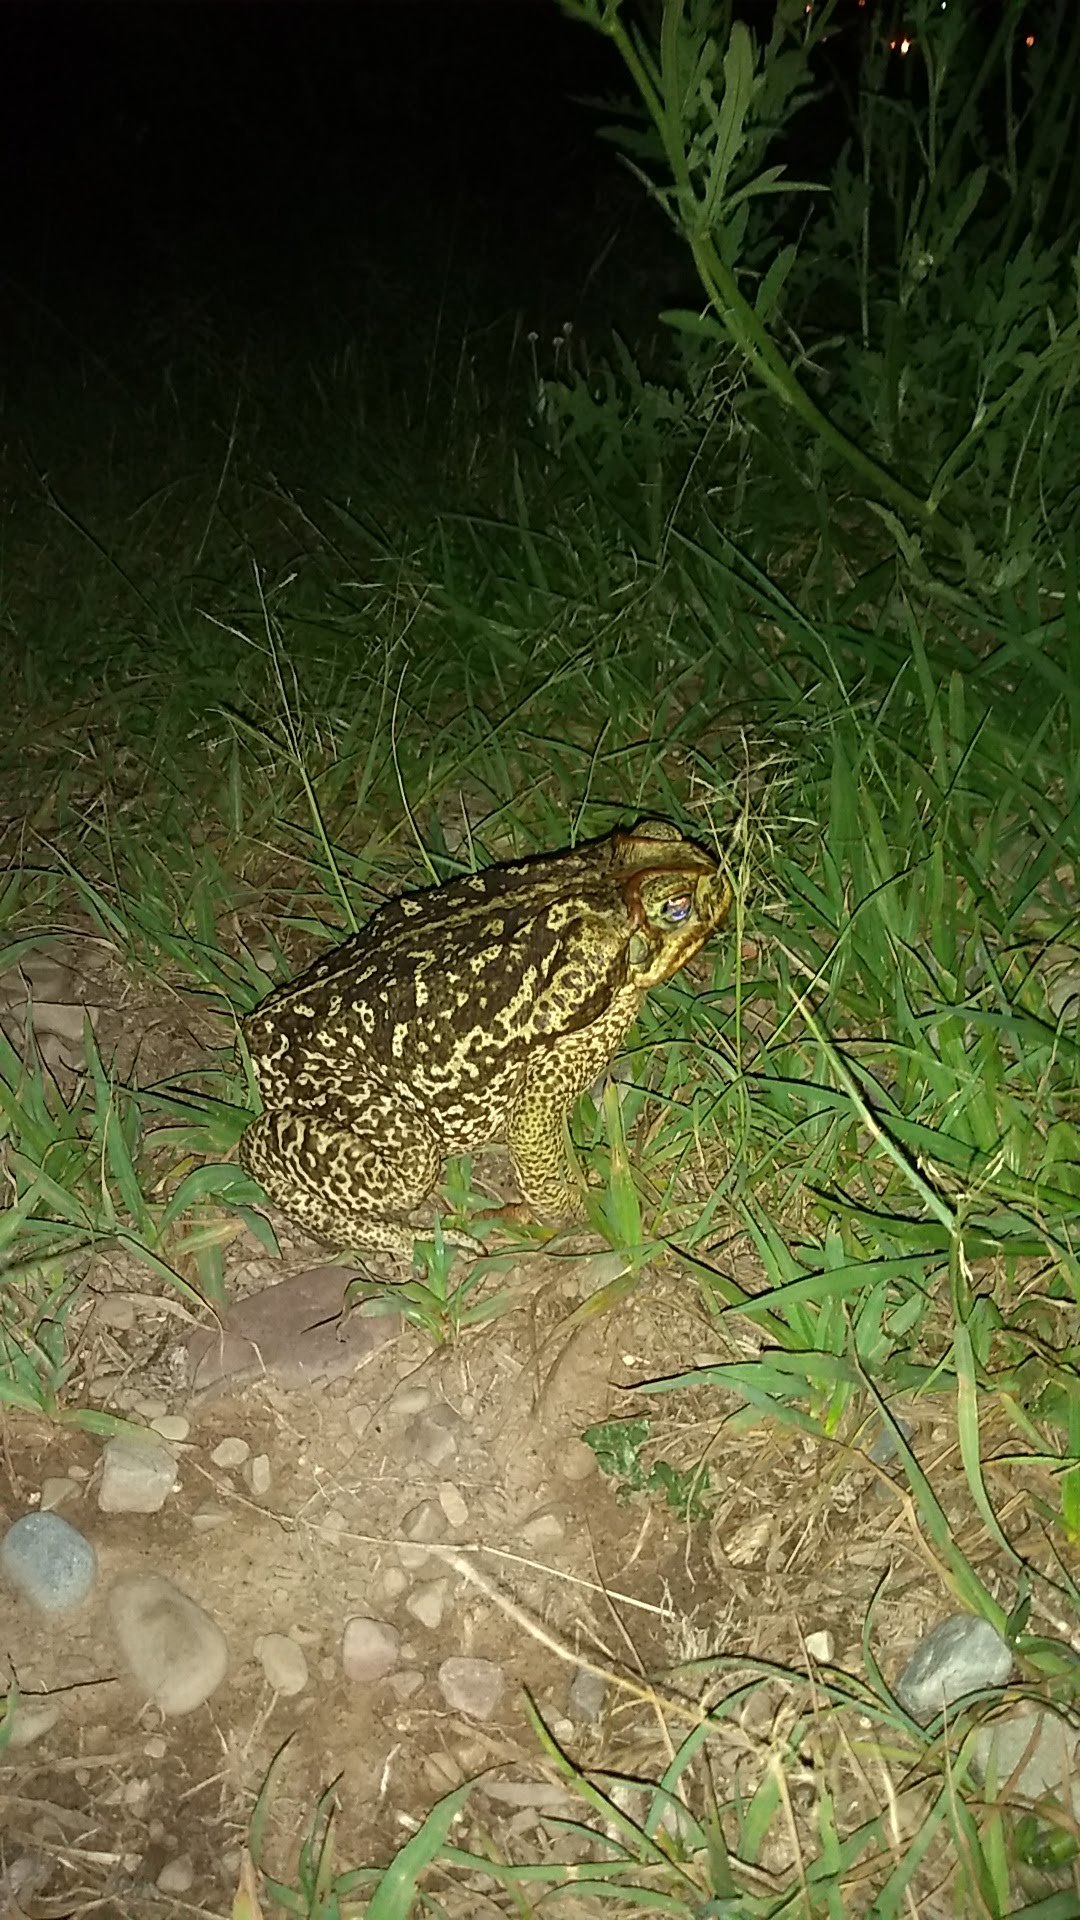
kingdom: Animalia
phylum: Chordata
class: Amphibia
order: Anura
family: Bufonidae
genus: Rhinella
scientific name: Rhinella diptycha
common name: Cope's toad
